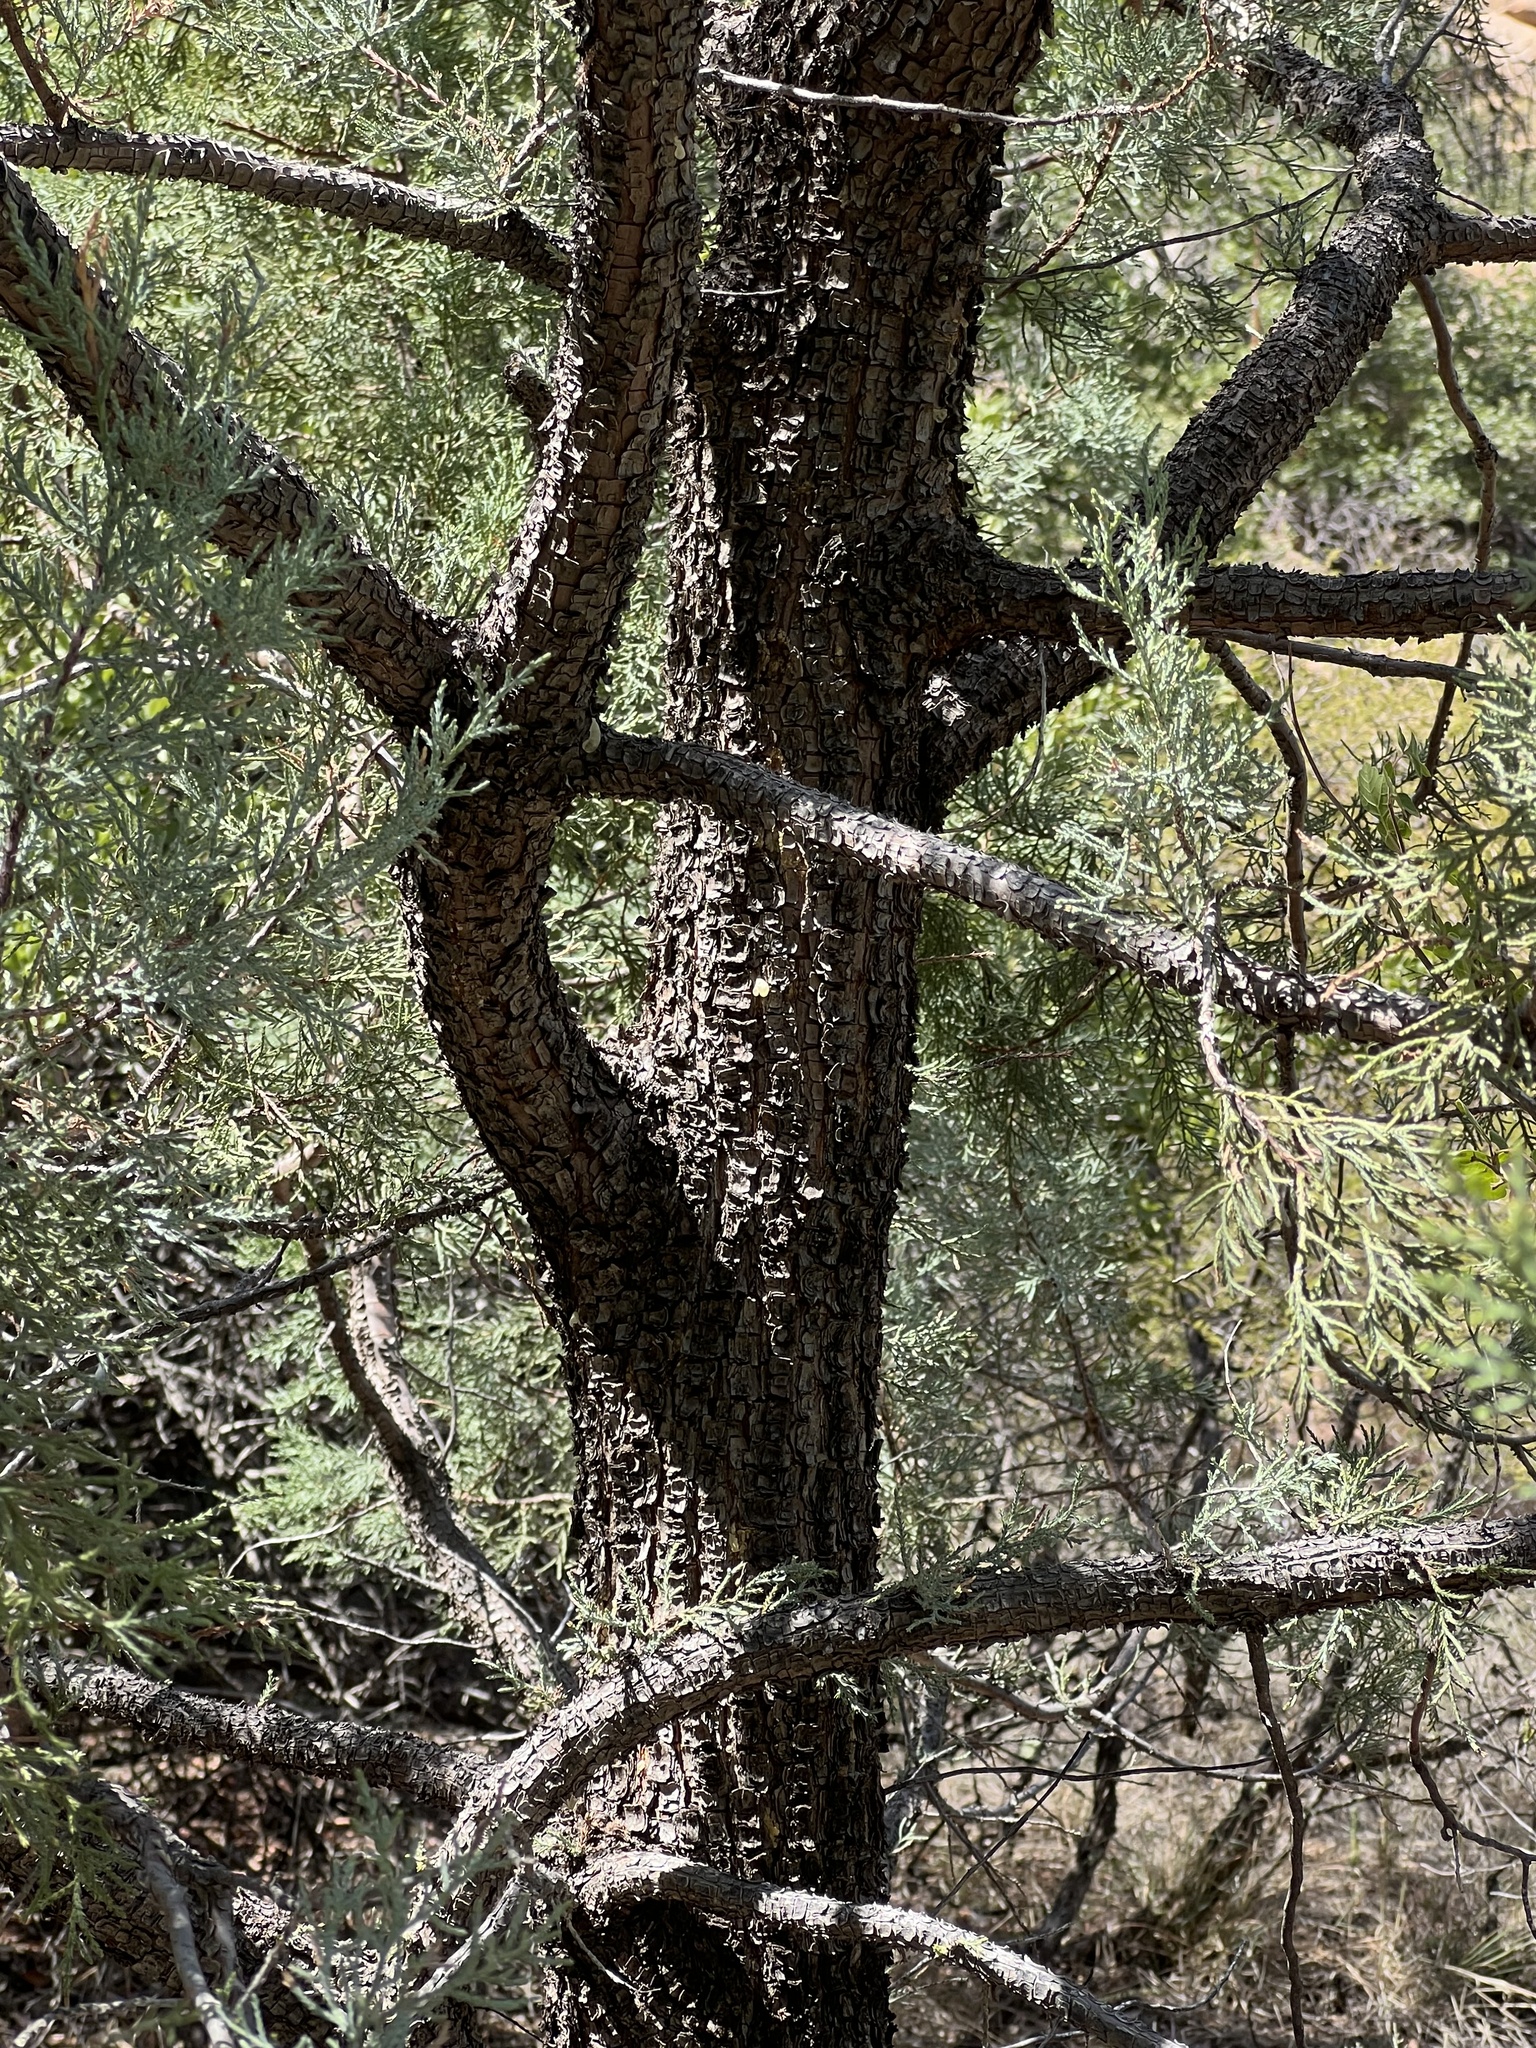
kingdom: Plantae
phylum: Tracheophyta
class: Pinopsida
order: Pinales
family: Cupressaceae
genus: Juniperus
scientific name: Juniperus deppeana
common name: Alligator juniper
